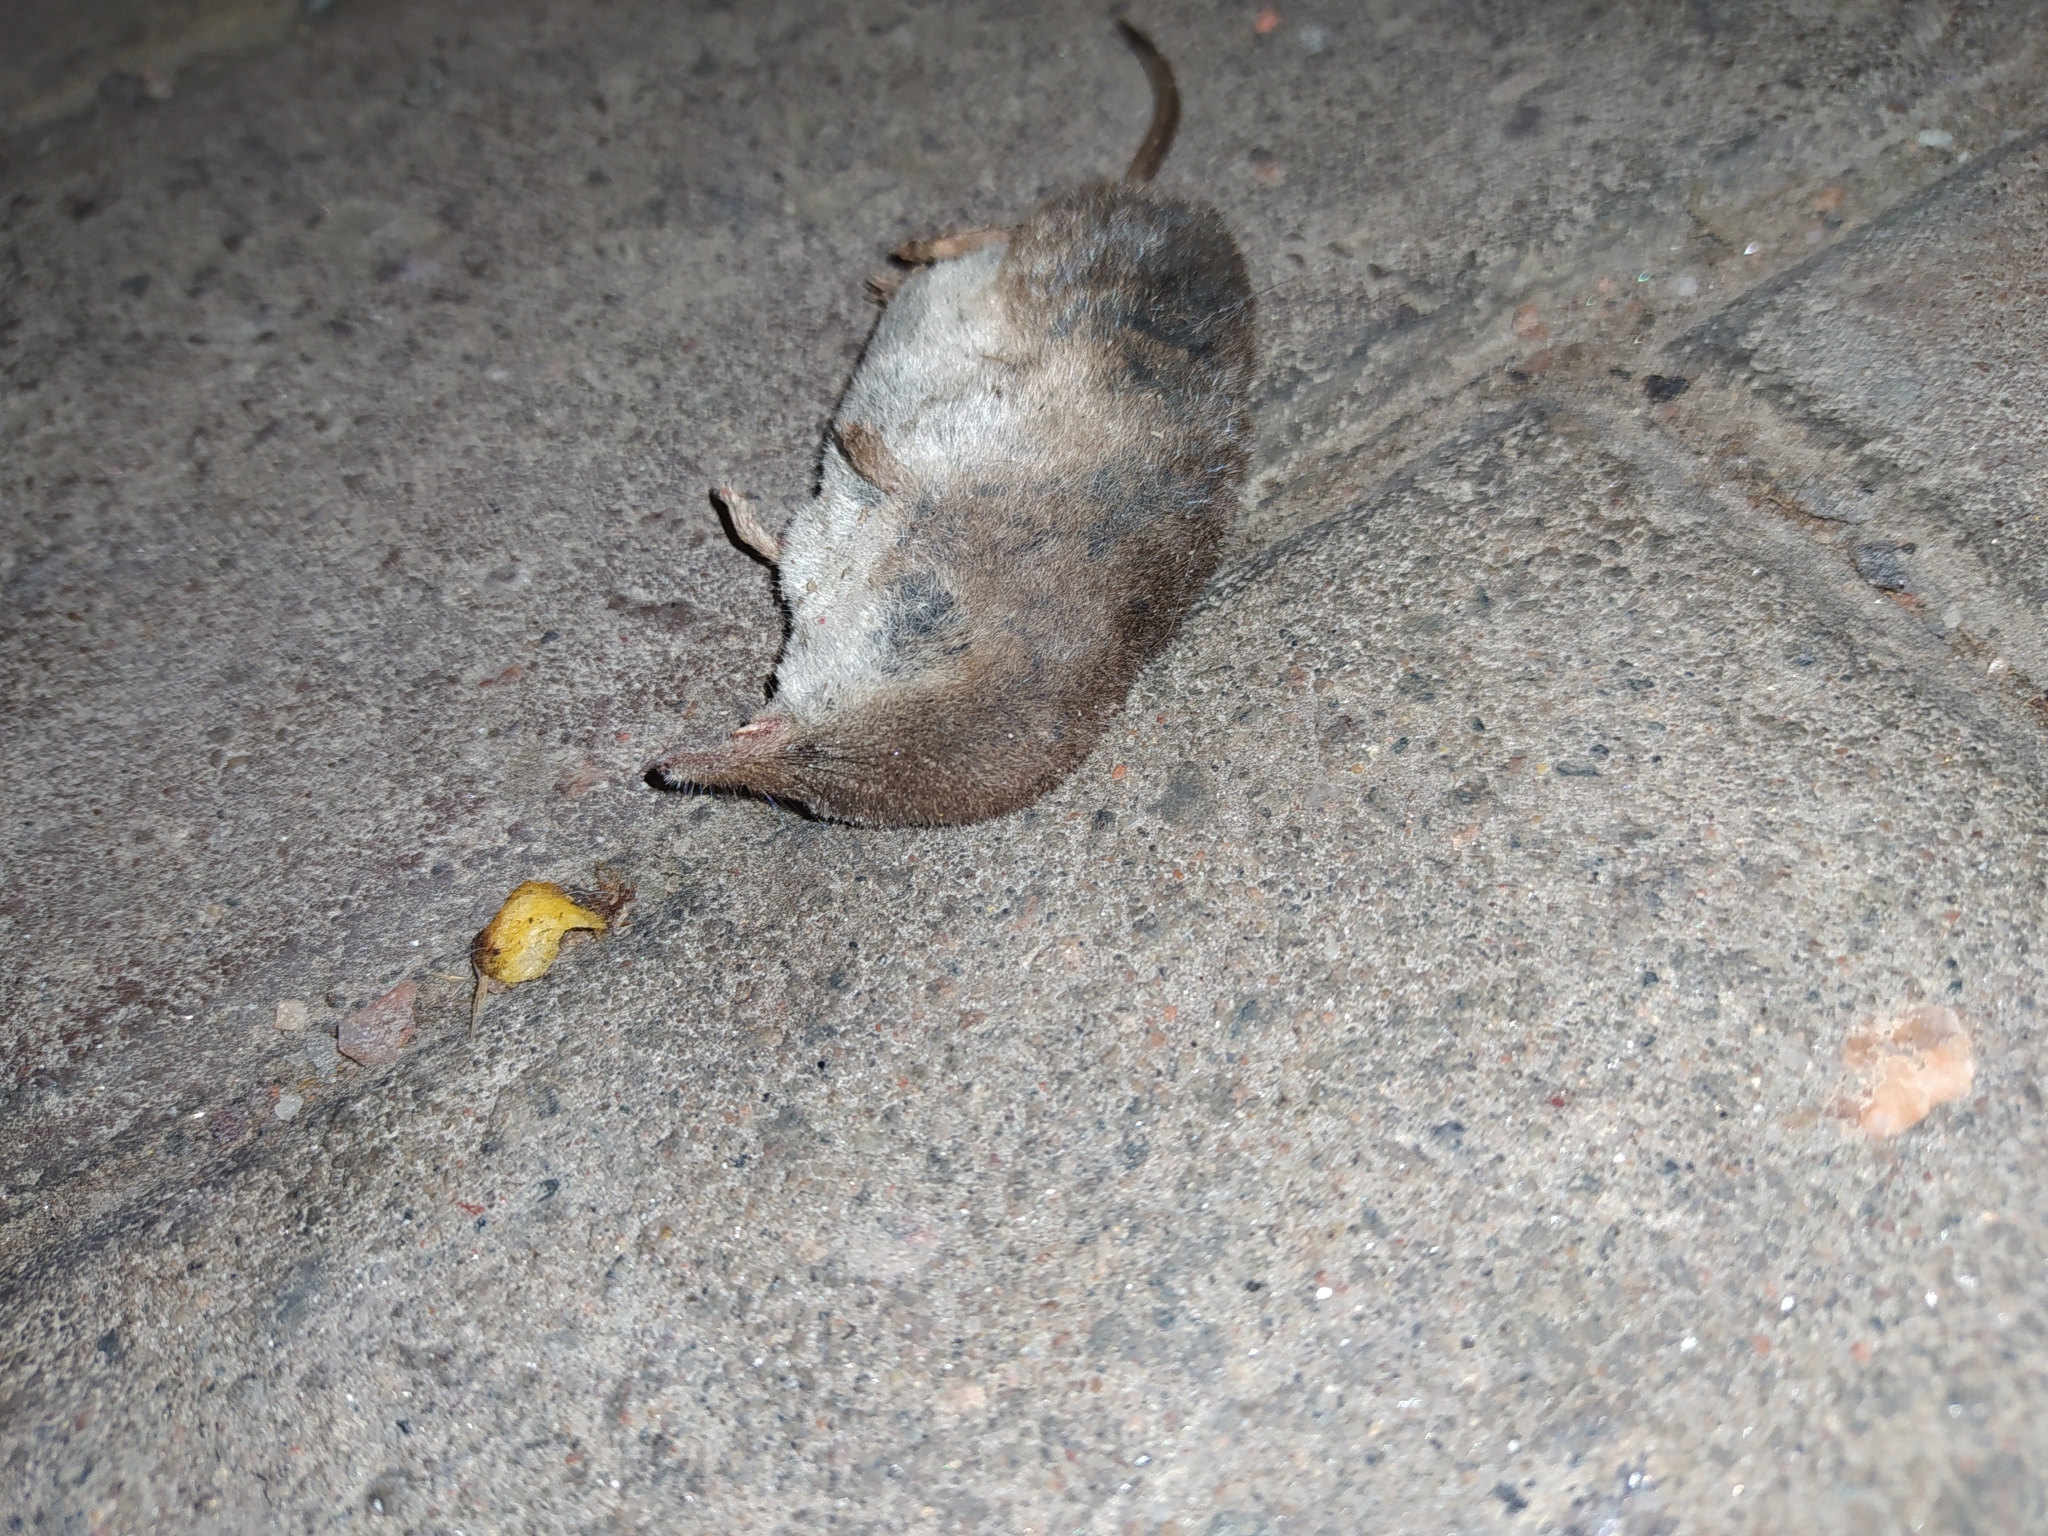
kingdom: Animalia
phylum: Chordata
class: Mammalia
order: Soricomorpha
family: Soricidae
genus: Sorex
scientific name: Sorex araneus
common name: Common shrew
